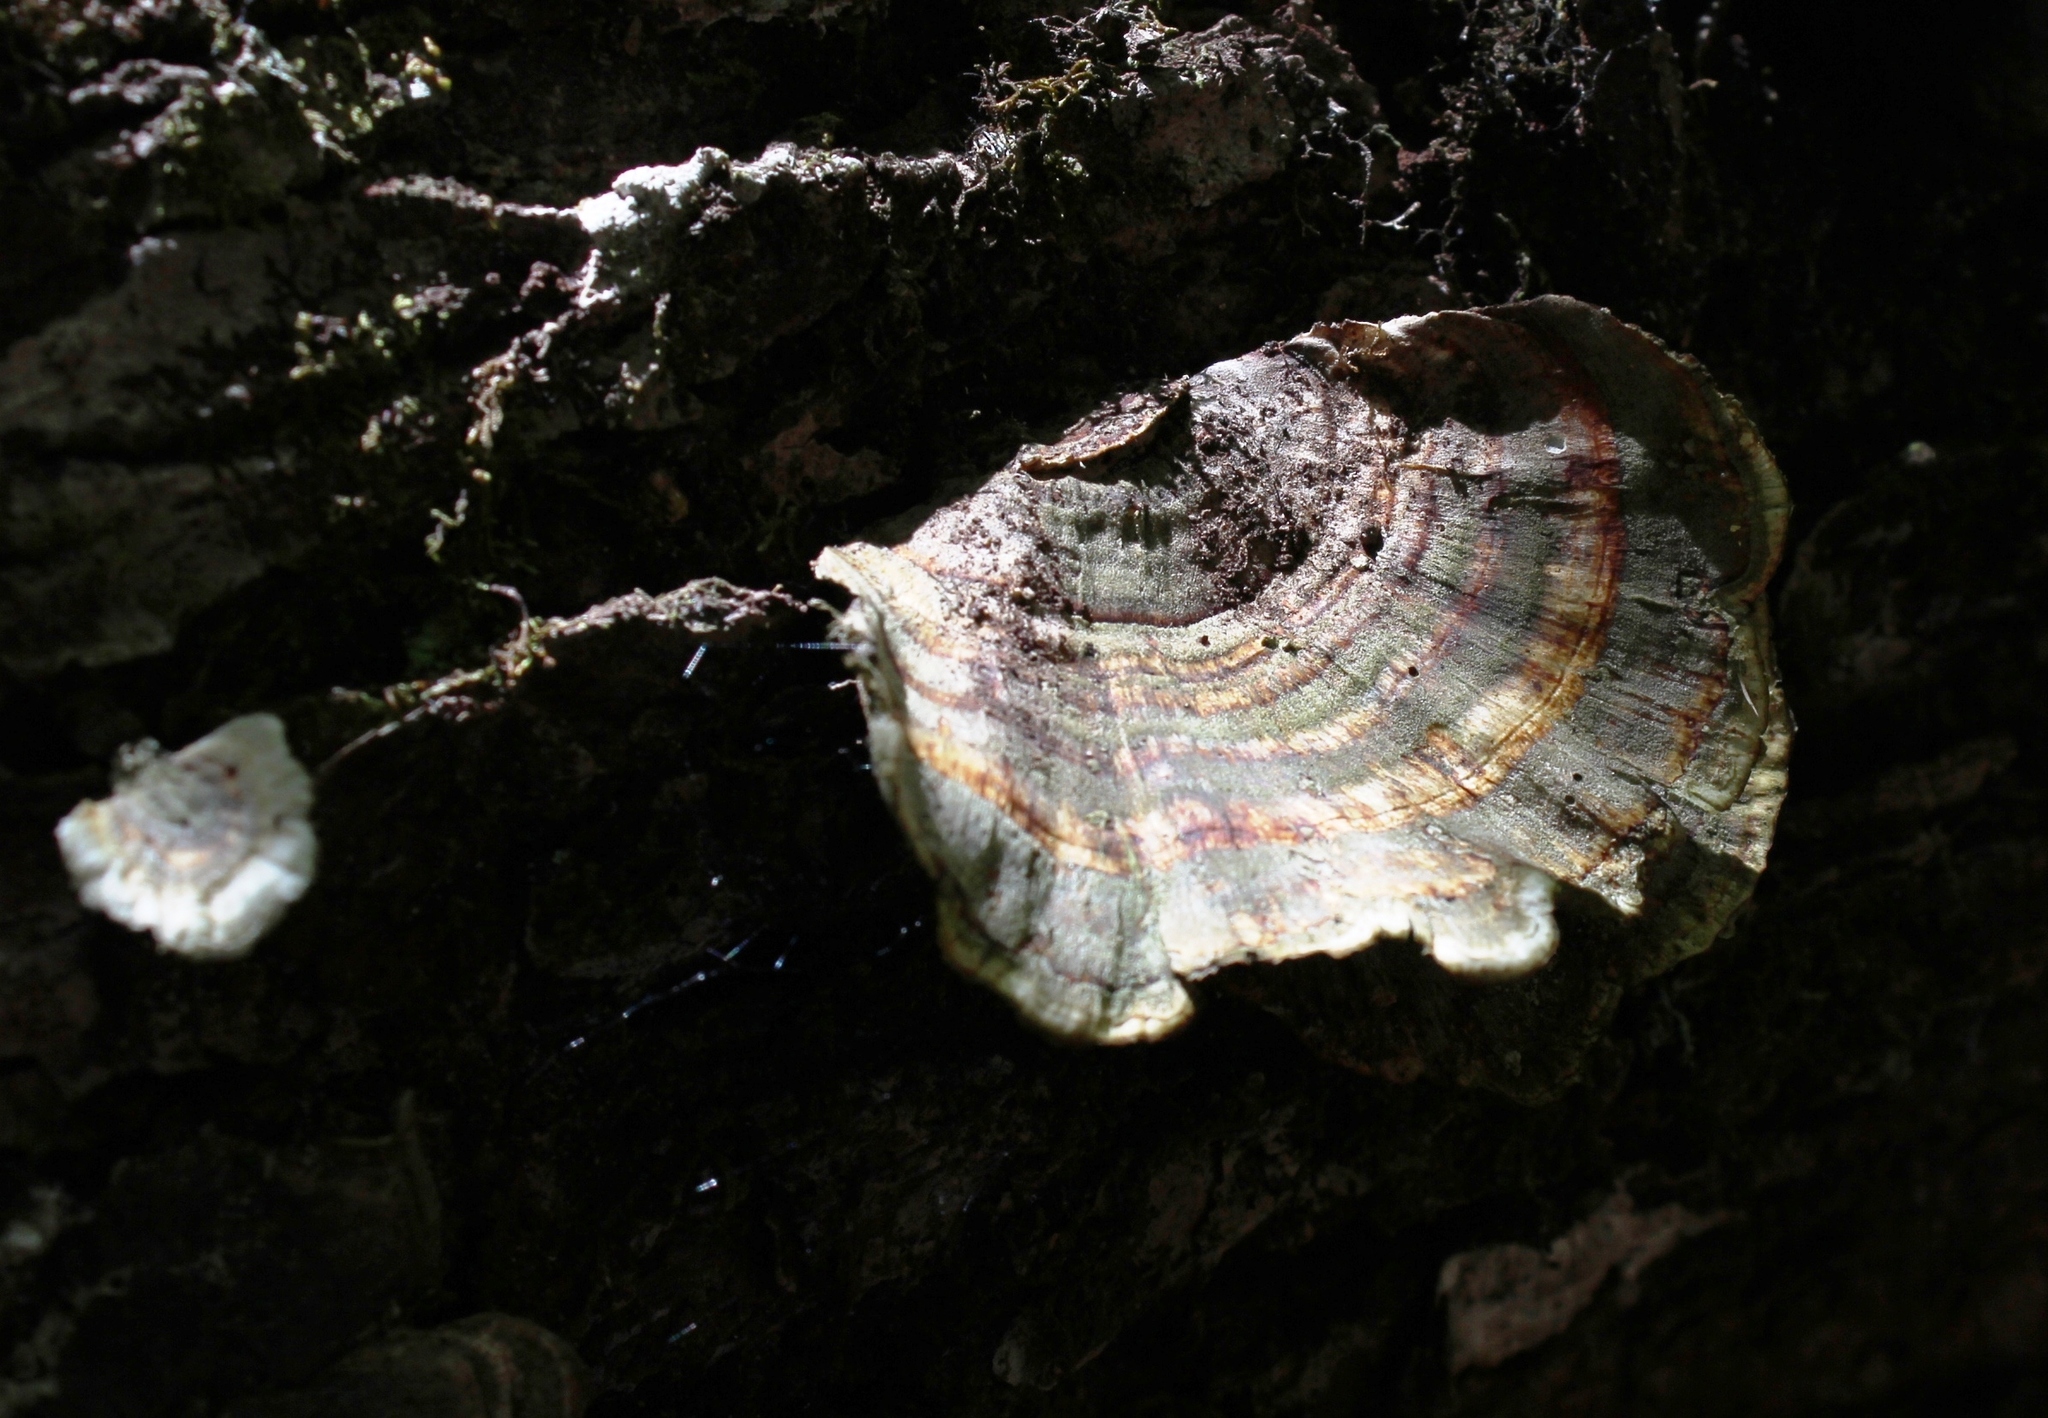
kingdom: Fungi
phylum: Basidiomycota
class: Agaricomycetes
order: Polyporales
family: Polyporaceae
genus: Trametes
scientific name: Trametes versicolor
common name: Turkeytail
